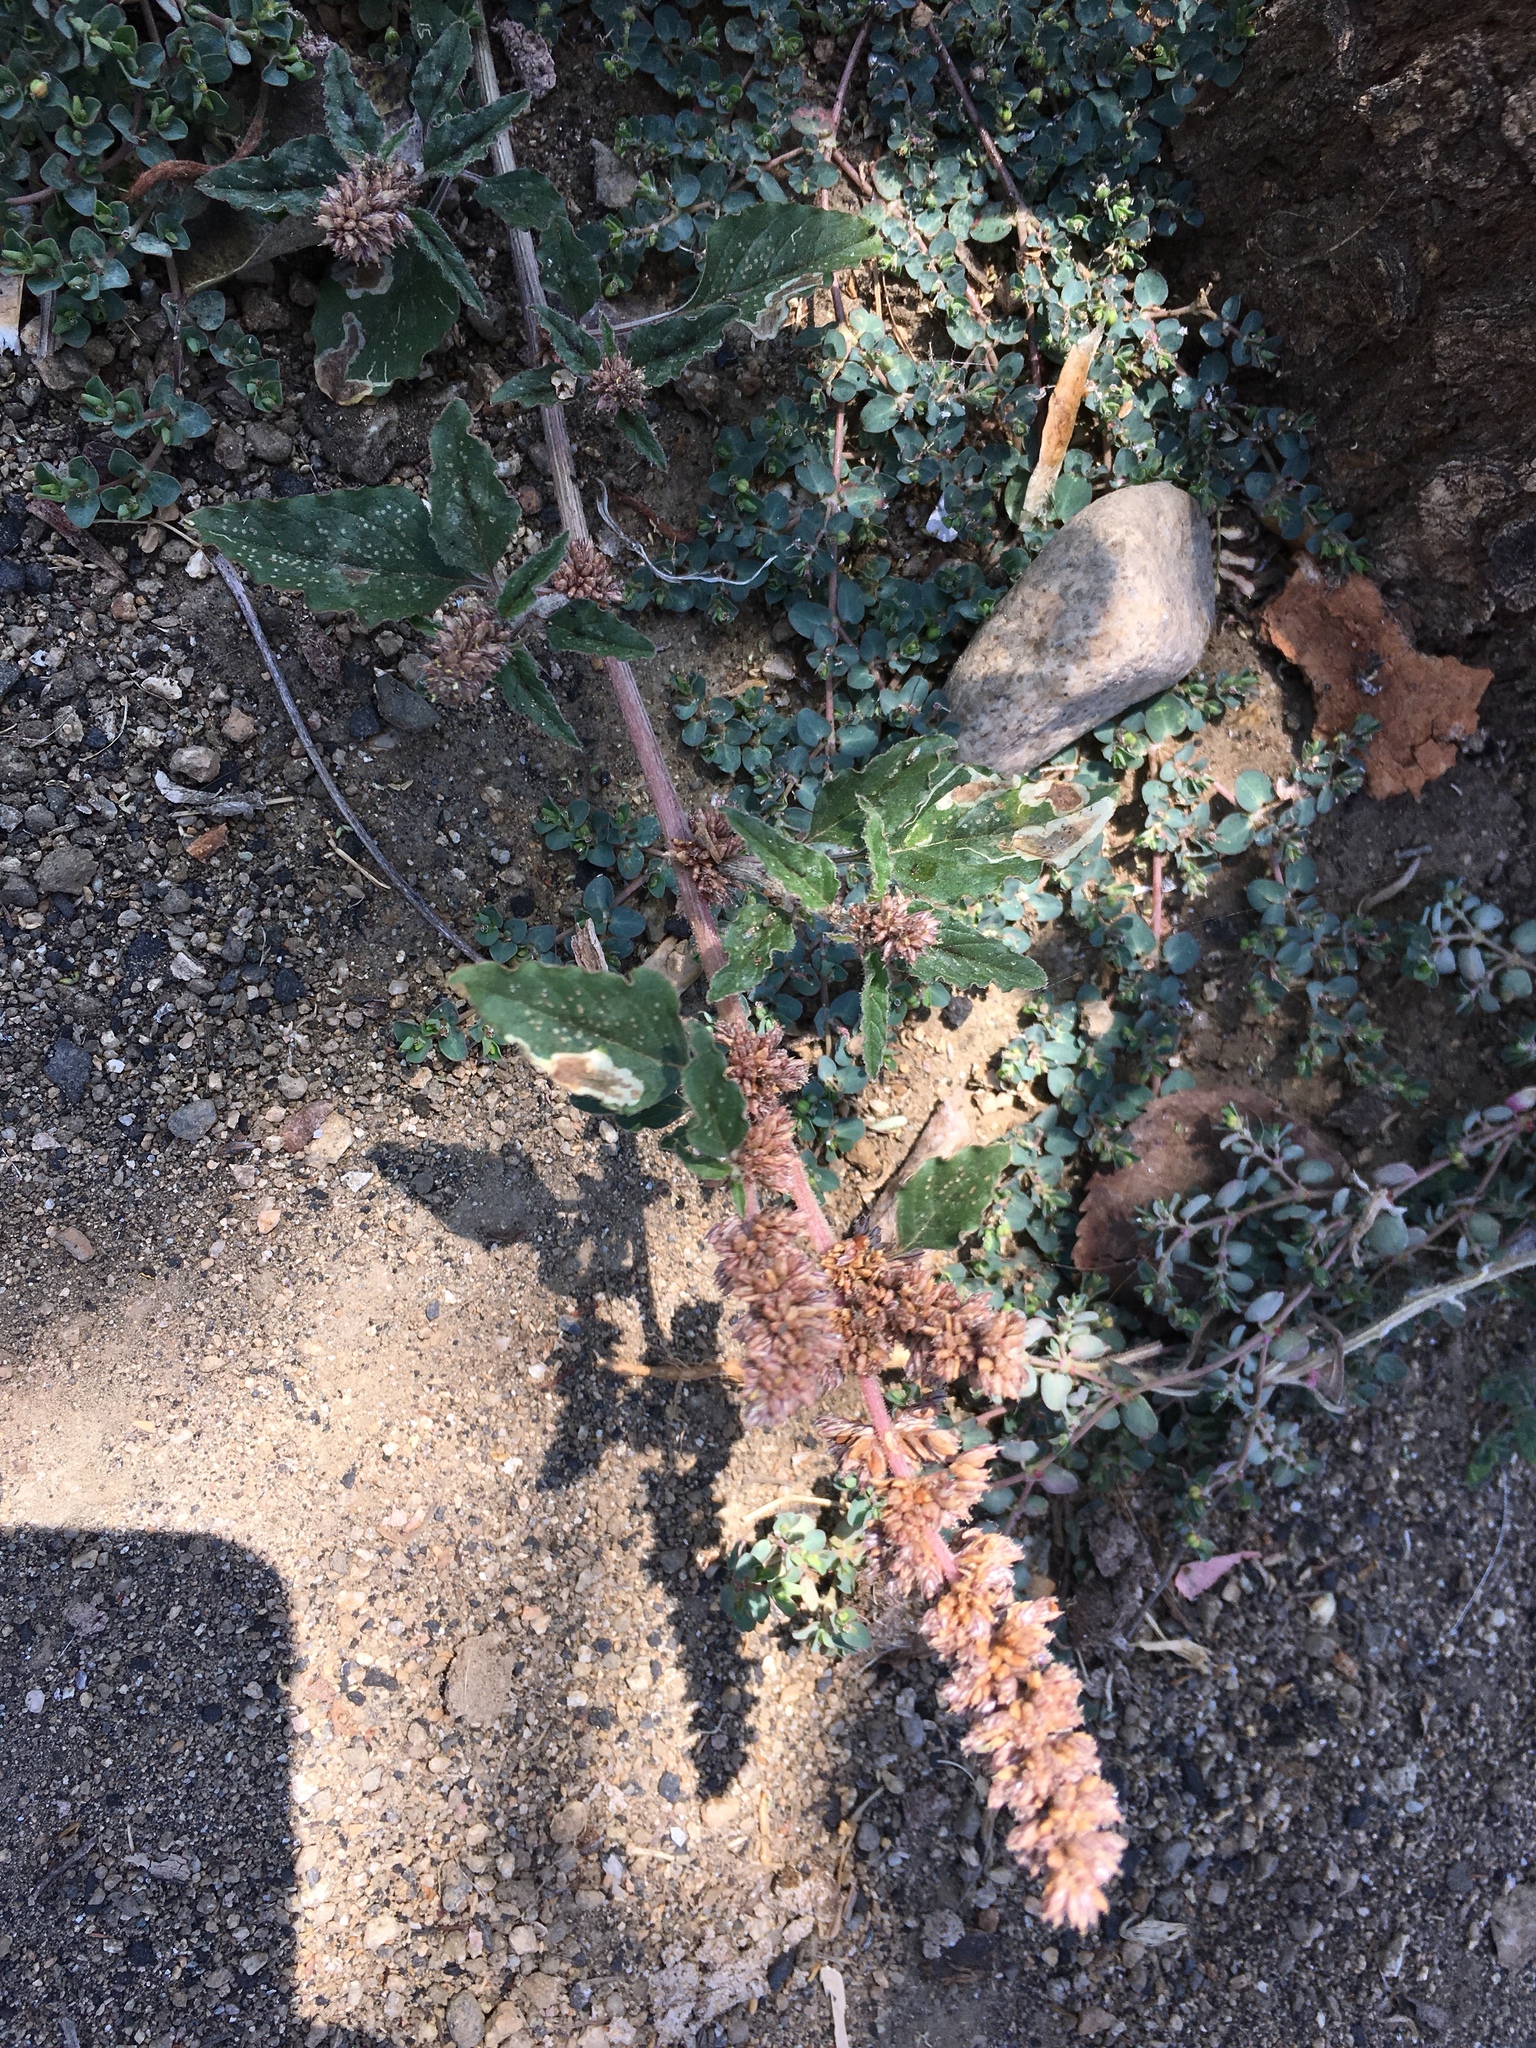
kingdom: Plantae
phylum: Tracheophyta
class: Magnoliopsida
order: Caryophyllales
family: Amaranthaceae
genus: Amaranthus
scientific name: Amaranthus deflexus
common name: Perennial pigweed
